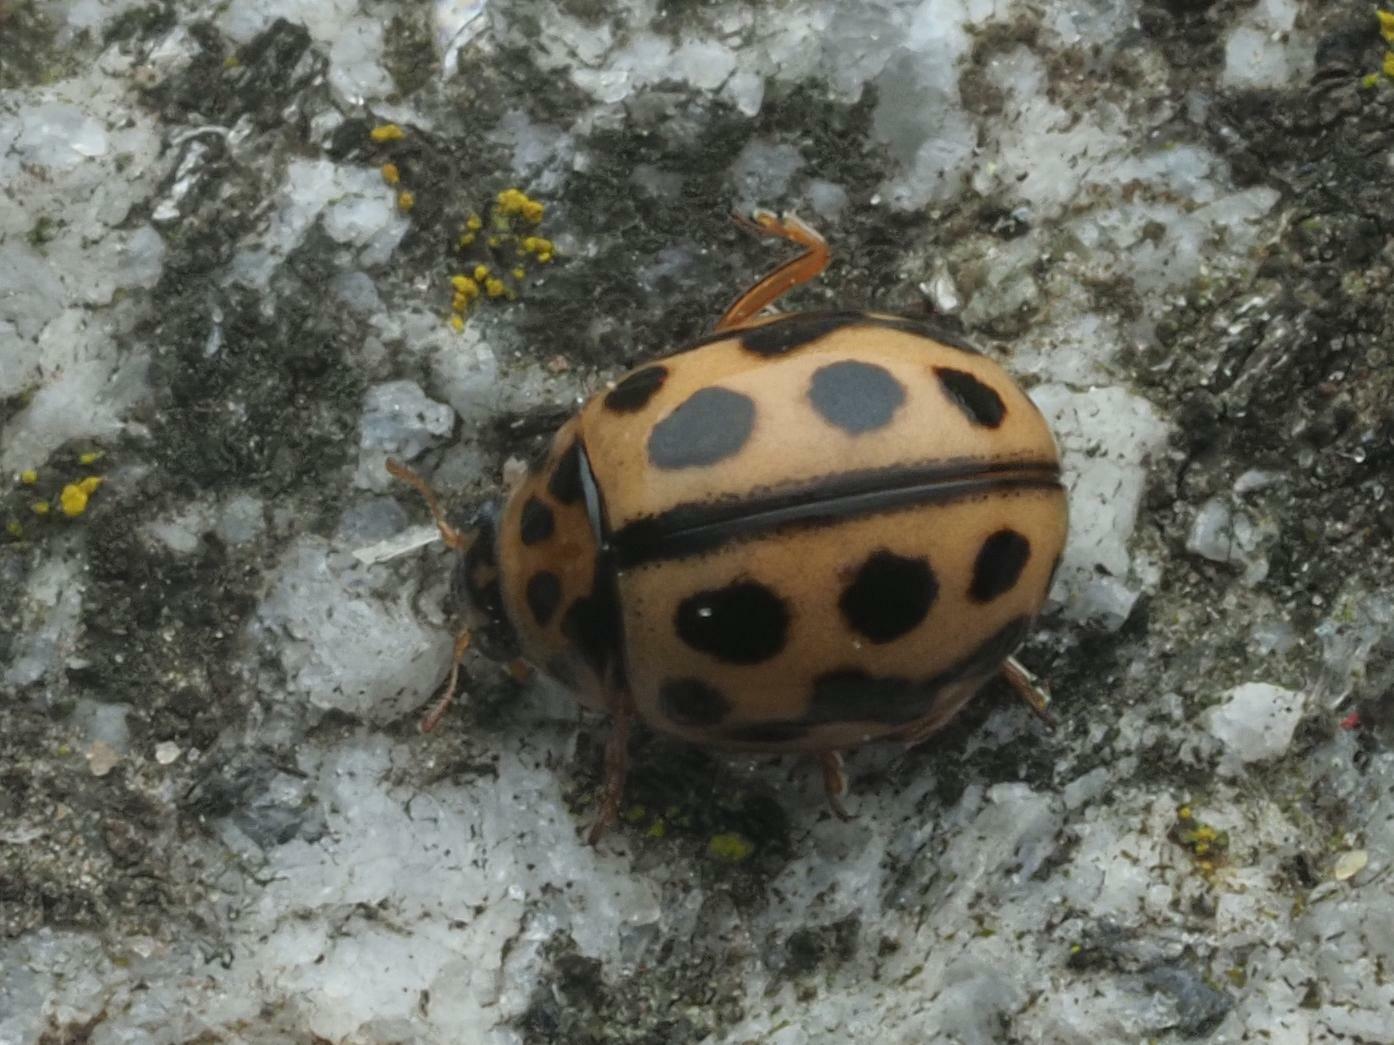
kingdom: Animalia
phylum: Arthropoda
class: Insecta
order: Coleoptera
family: Coccinellidae
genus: Tytthaspis
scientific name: Tytthaspis sedecimpunctata
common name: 16-spot ladybird
